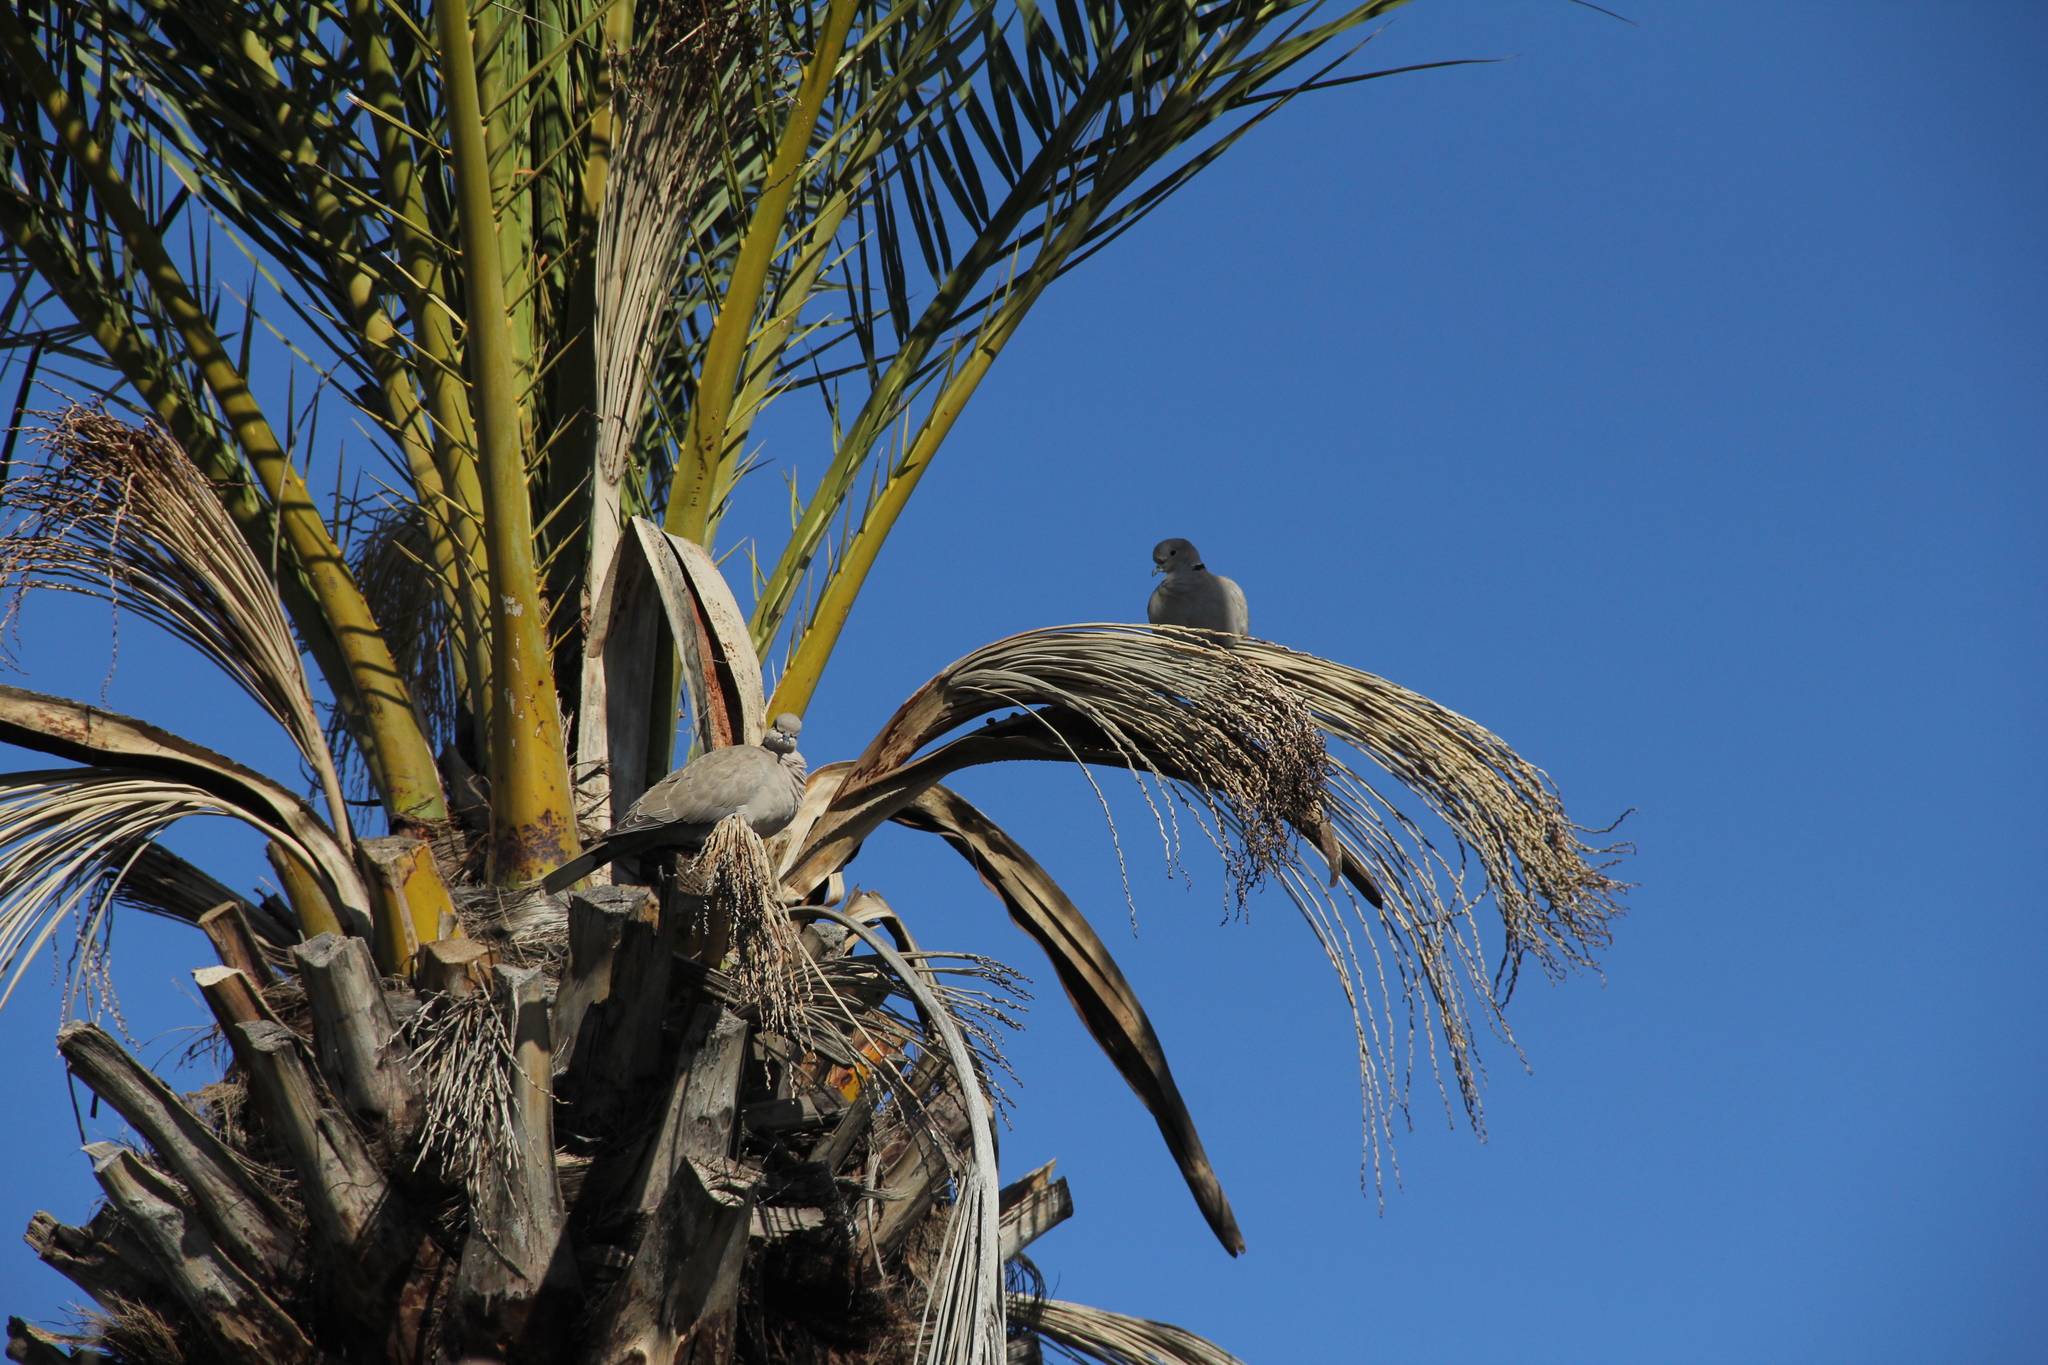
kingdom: Animalia
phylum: Chordata
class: Aves
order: Columbiformes
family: Columbidae
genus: Streptopelia
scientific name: Streptopelia decaocto
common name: Eurasian collared dove
